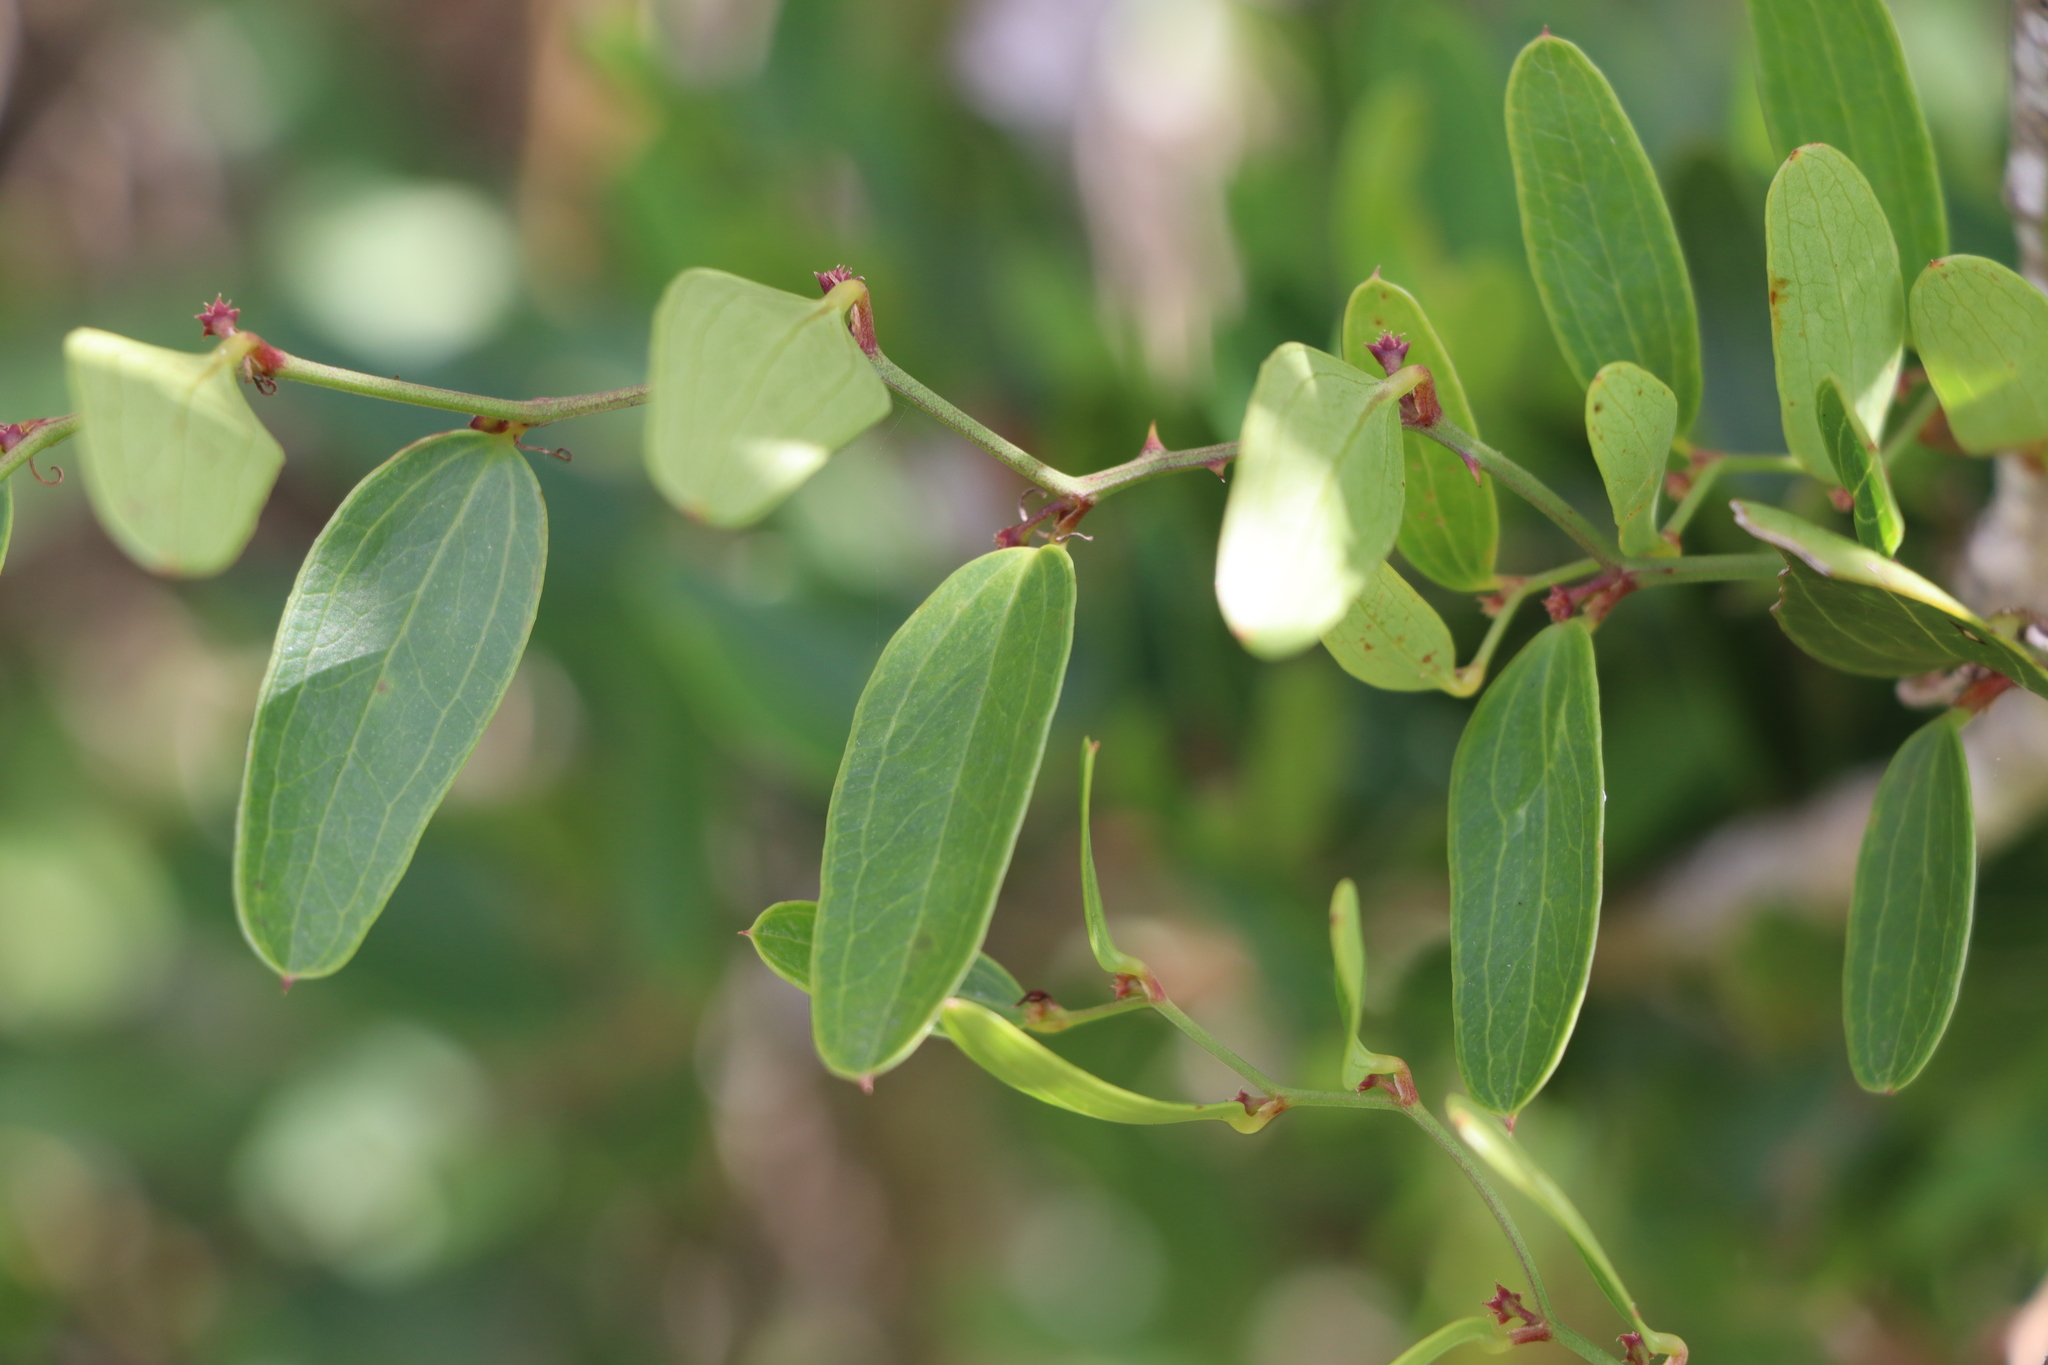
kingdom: Plantae
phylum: Tracheophyta
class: Liliopsida
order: Liliales
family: Smilacaceae
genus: Smilax
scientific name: Smilax campestris
